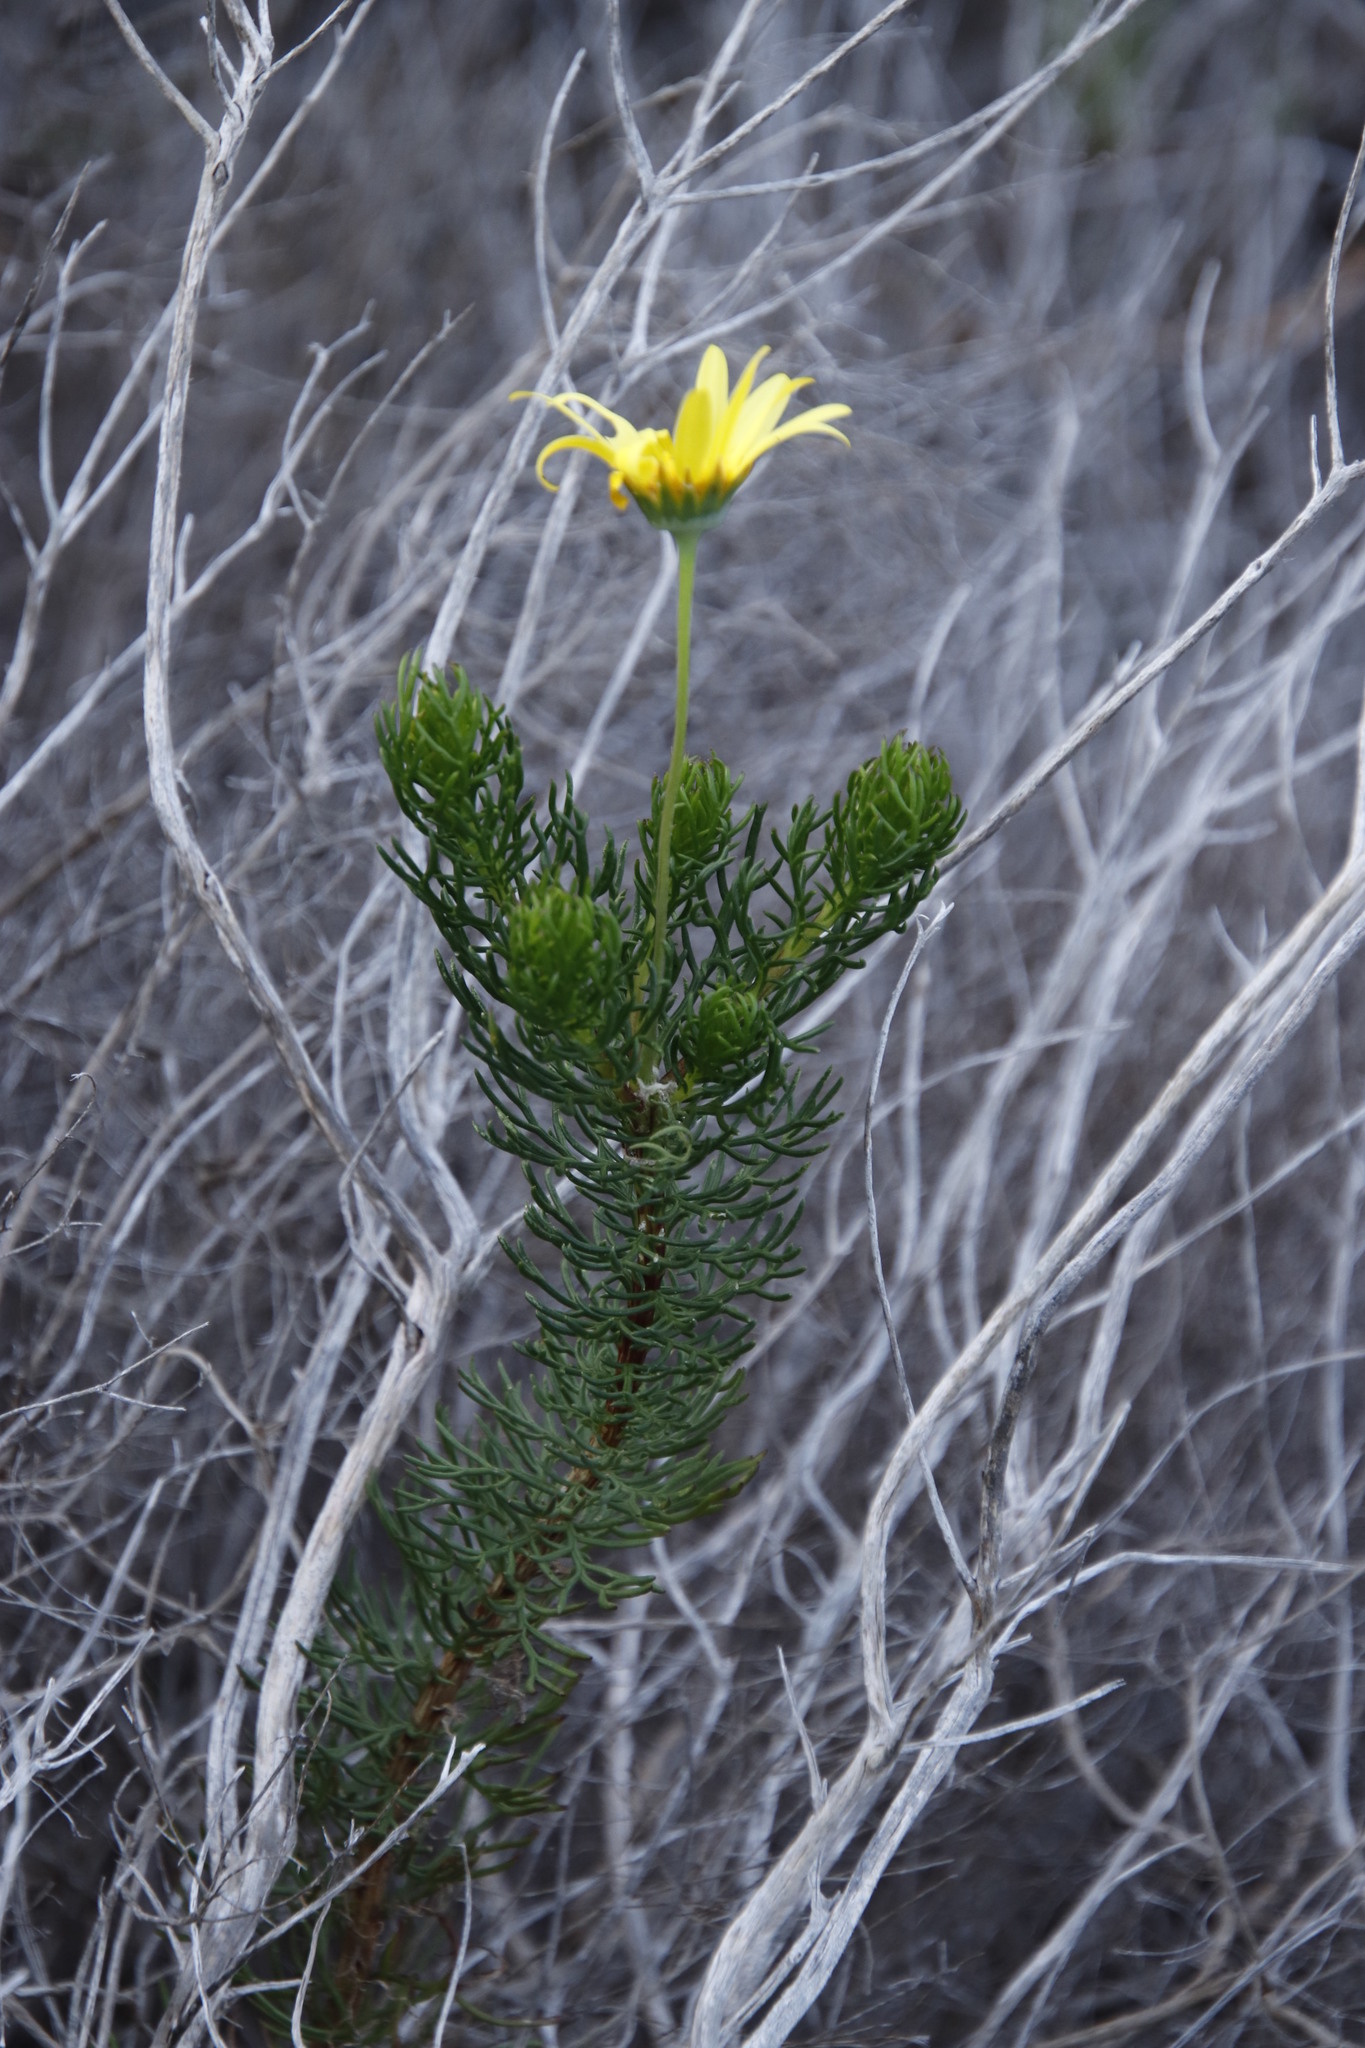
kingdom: Plantae
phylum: Tracheophyta
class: Magnoliopsida
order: Asterales
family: Asteraceae
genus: Euryops
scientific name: Euryops abrotanifolius
